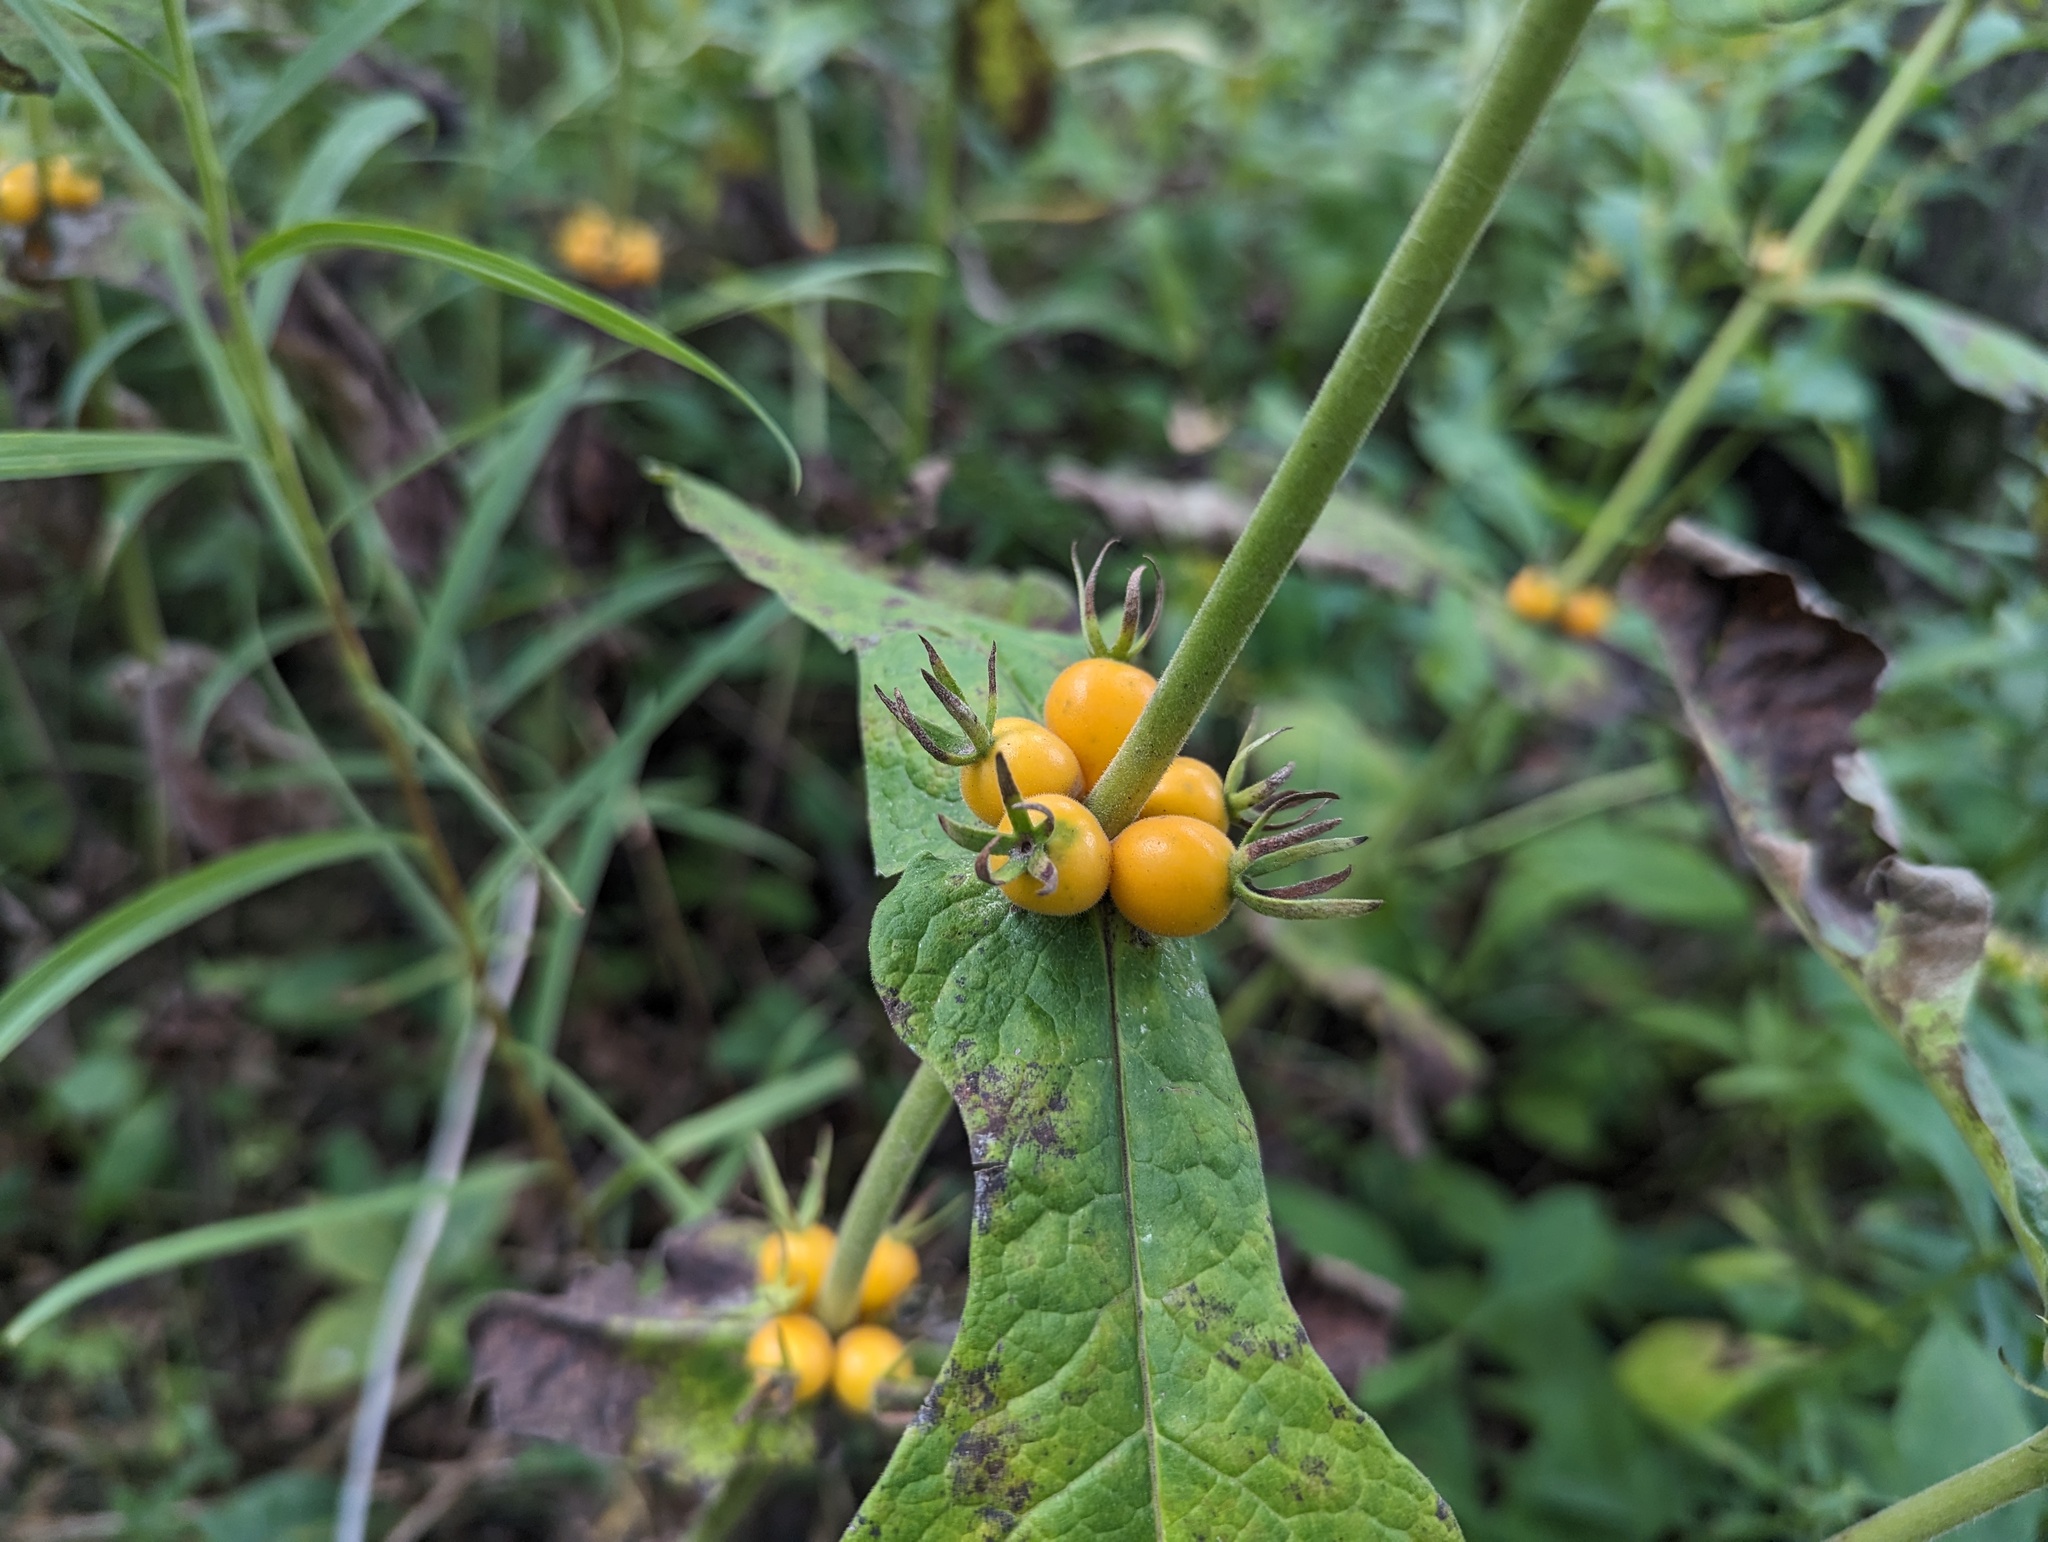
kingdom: Plantae
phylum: Tracheophyta
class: Magnoliopsida
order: Dipsacales
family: Caprifoliaceae
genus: Triosteum
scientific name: Triosteum perfoliatum
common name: Common horse-gentian
